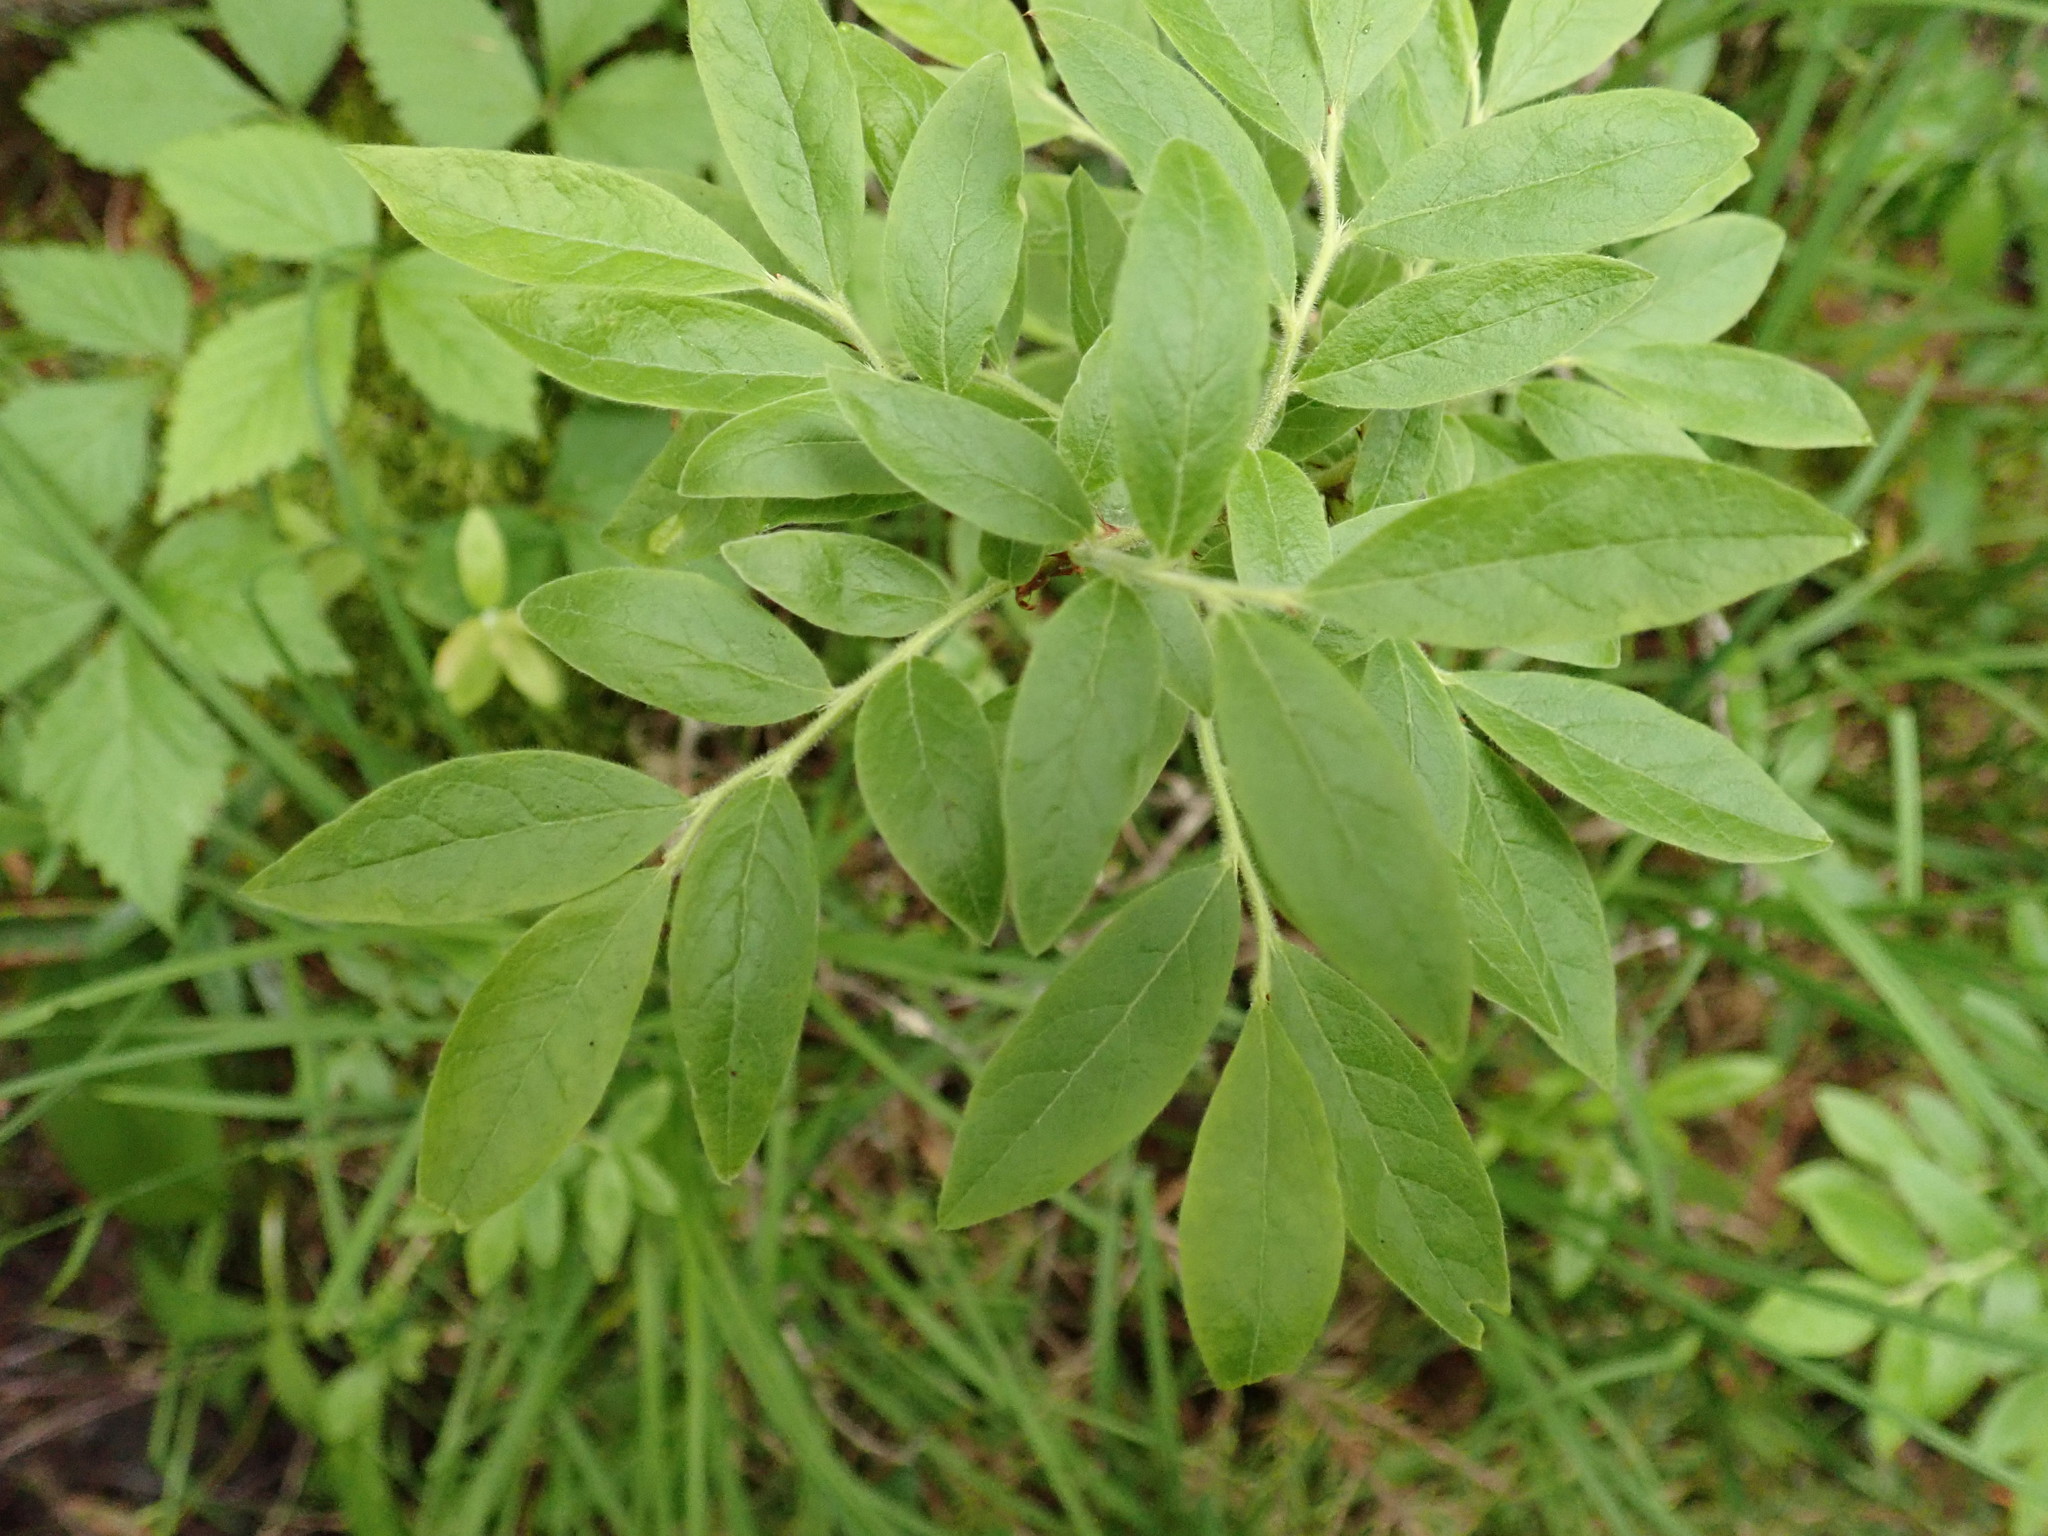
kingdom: Plantae
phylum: Tracheophyta
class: Magnoliopsida
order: Ericales
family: Ericaceae
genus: Vaccinium
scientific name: Vaccinium myrtilloides
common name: Canada blueberry
